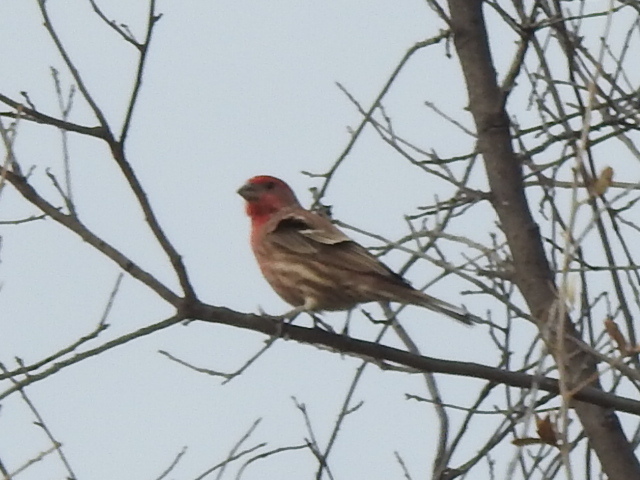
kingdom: Animalia
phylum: Chordata
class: Aves
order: Passeriformes
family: Fringillidae
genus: Haemorhous
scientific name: Haemorhous mexicanus
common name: House finch
